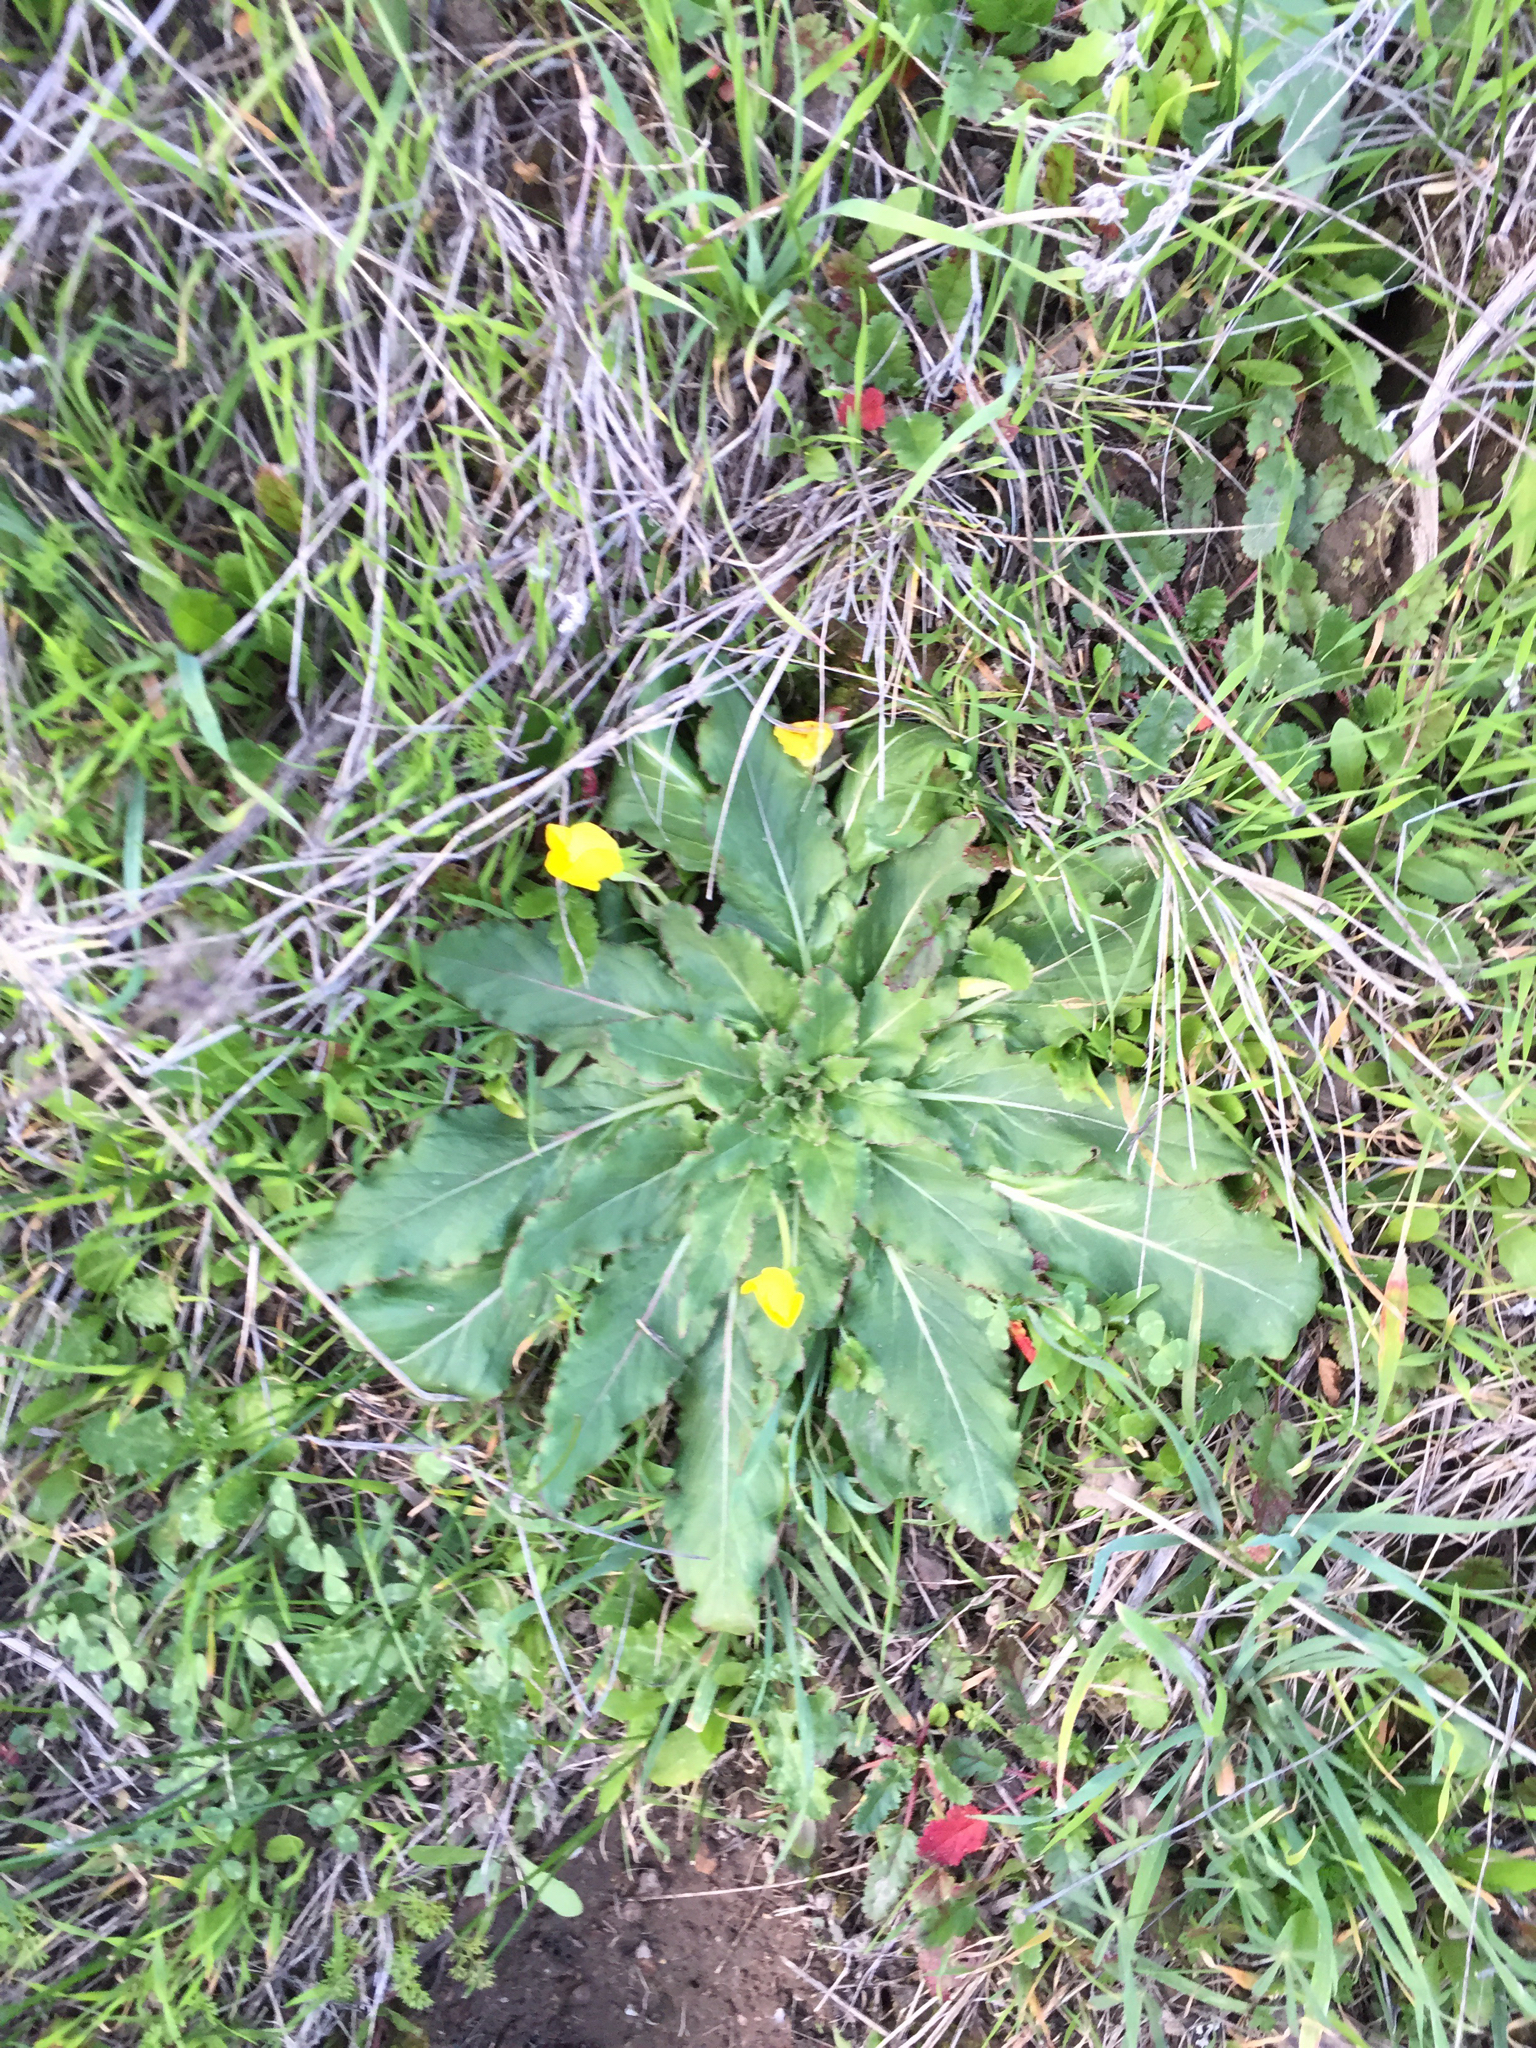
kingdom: Plantae
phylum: Tracheophyta
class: Magnoliopsida
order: Myrtales
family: Onagraceae
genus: Taraxia
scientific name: Taraxia ovata
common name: Goldeneggs
